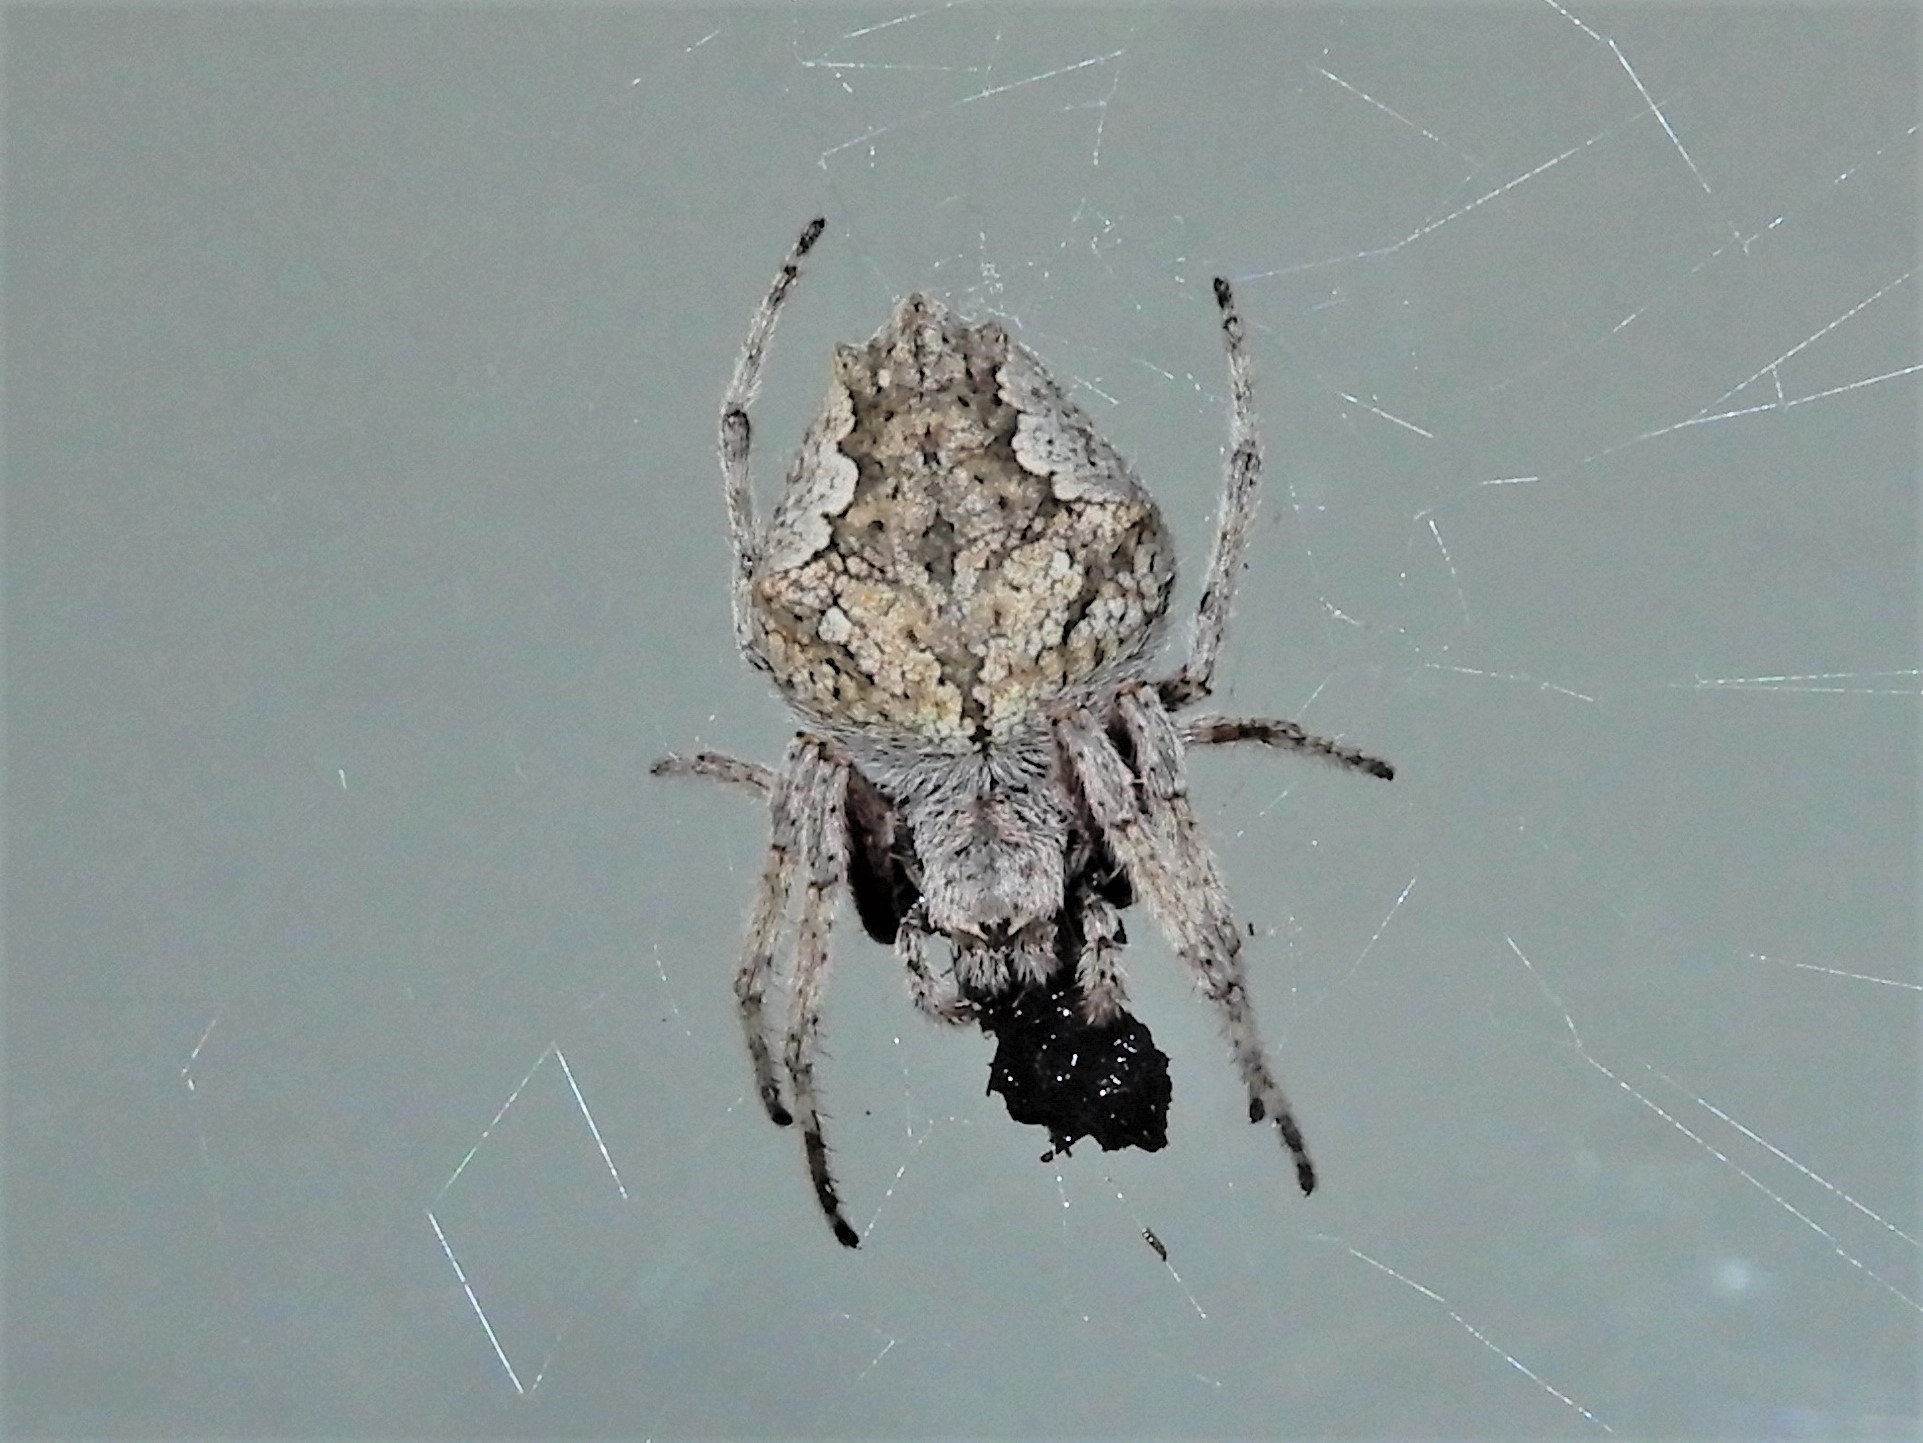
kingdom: Animalia
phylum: Arthropoda
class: Arachnida
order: Araneae
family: Araneidae
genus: Eriophora
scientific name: Eriophora pustulosa
